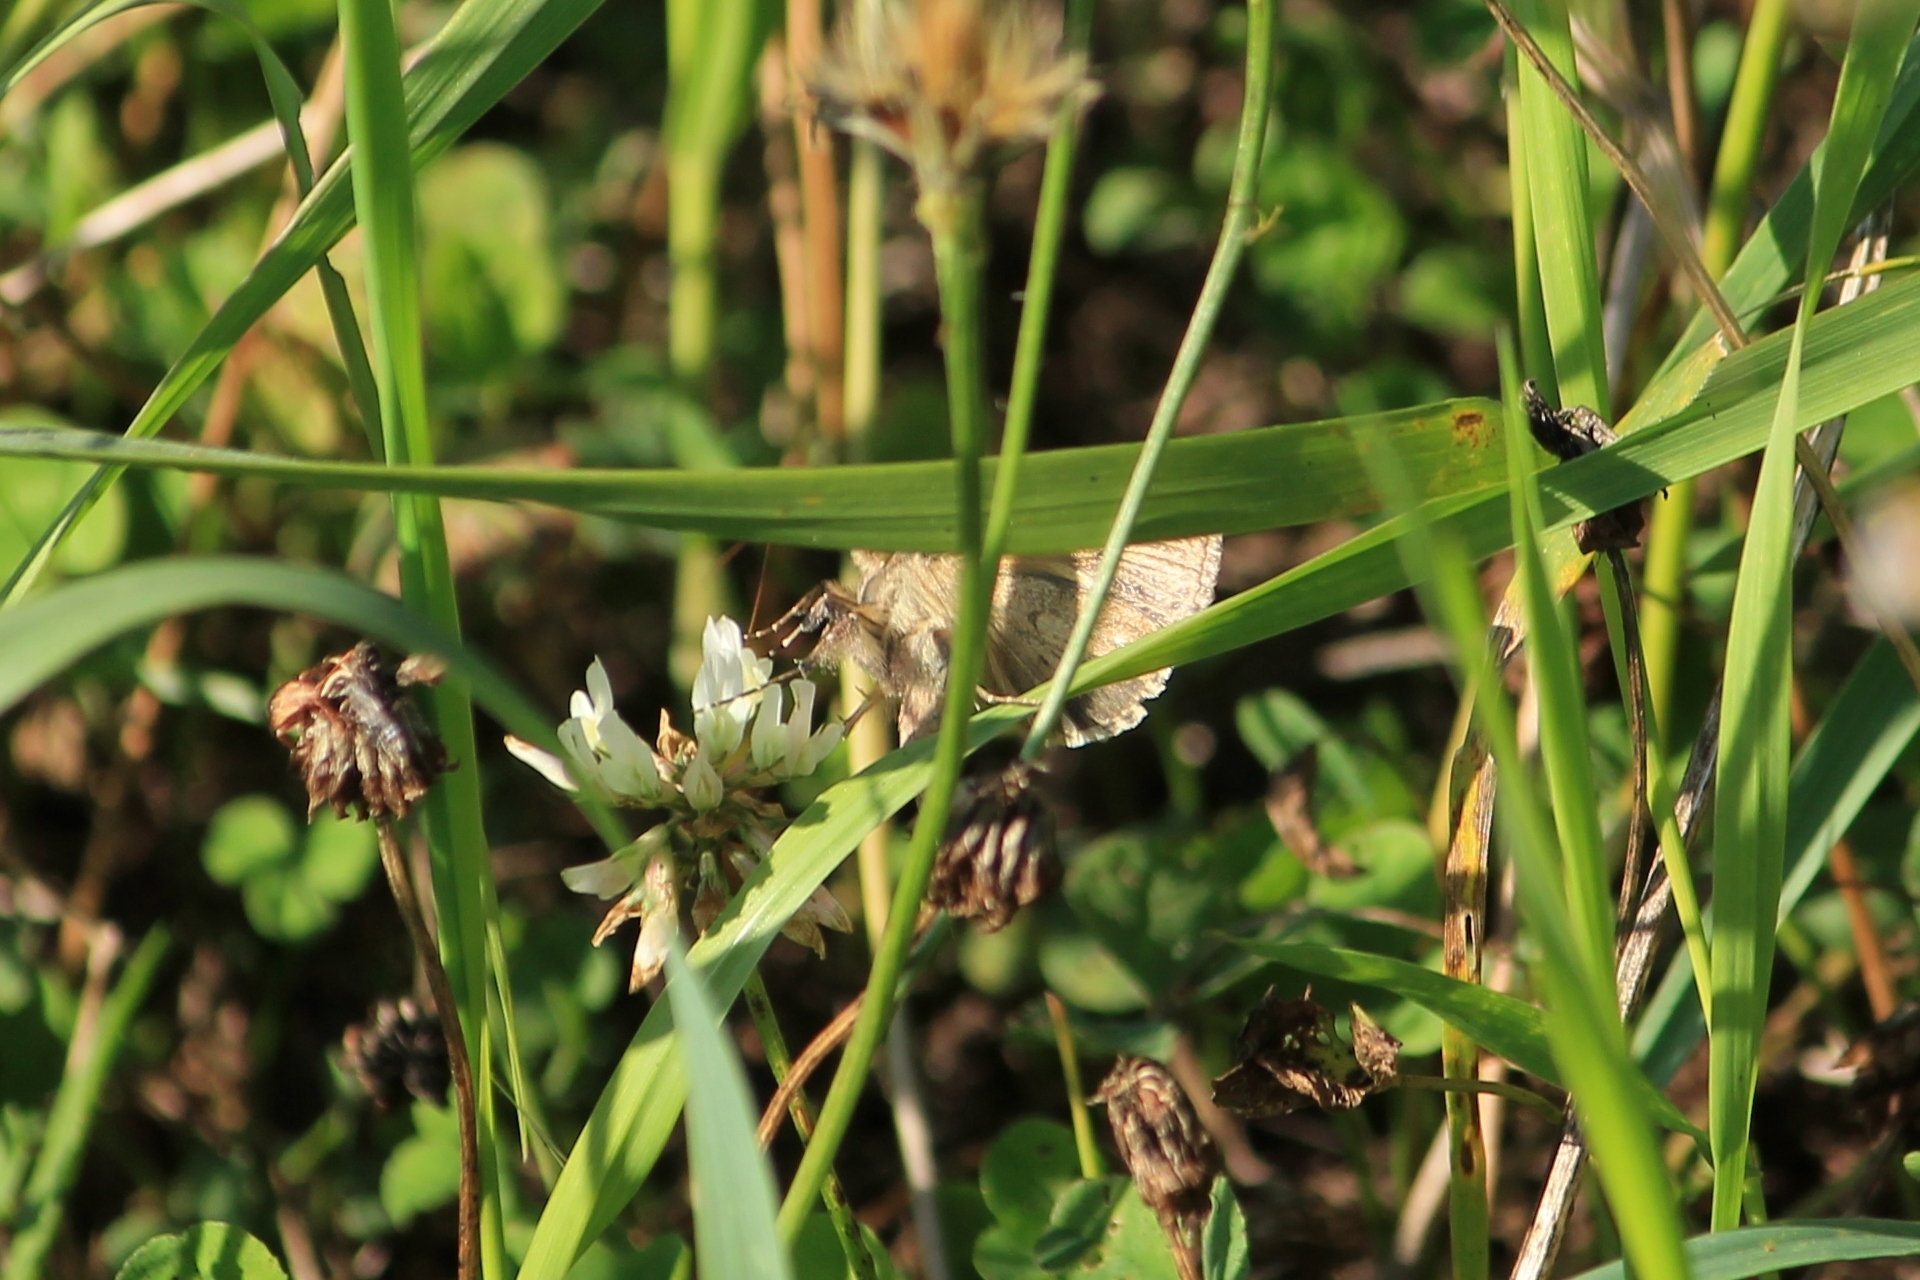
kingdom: Animalia
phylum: Arthropoda
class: Insecta
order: Lepidoptera
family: Noctuidae
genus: Autographa
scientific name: Autographa gamma
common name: Silver y
